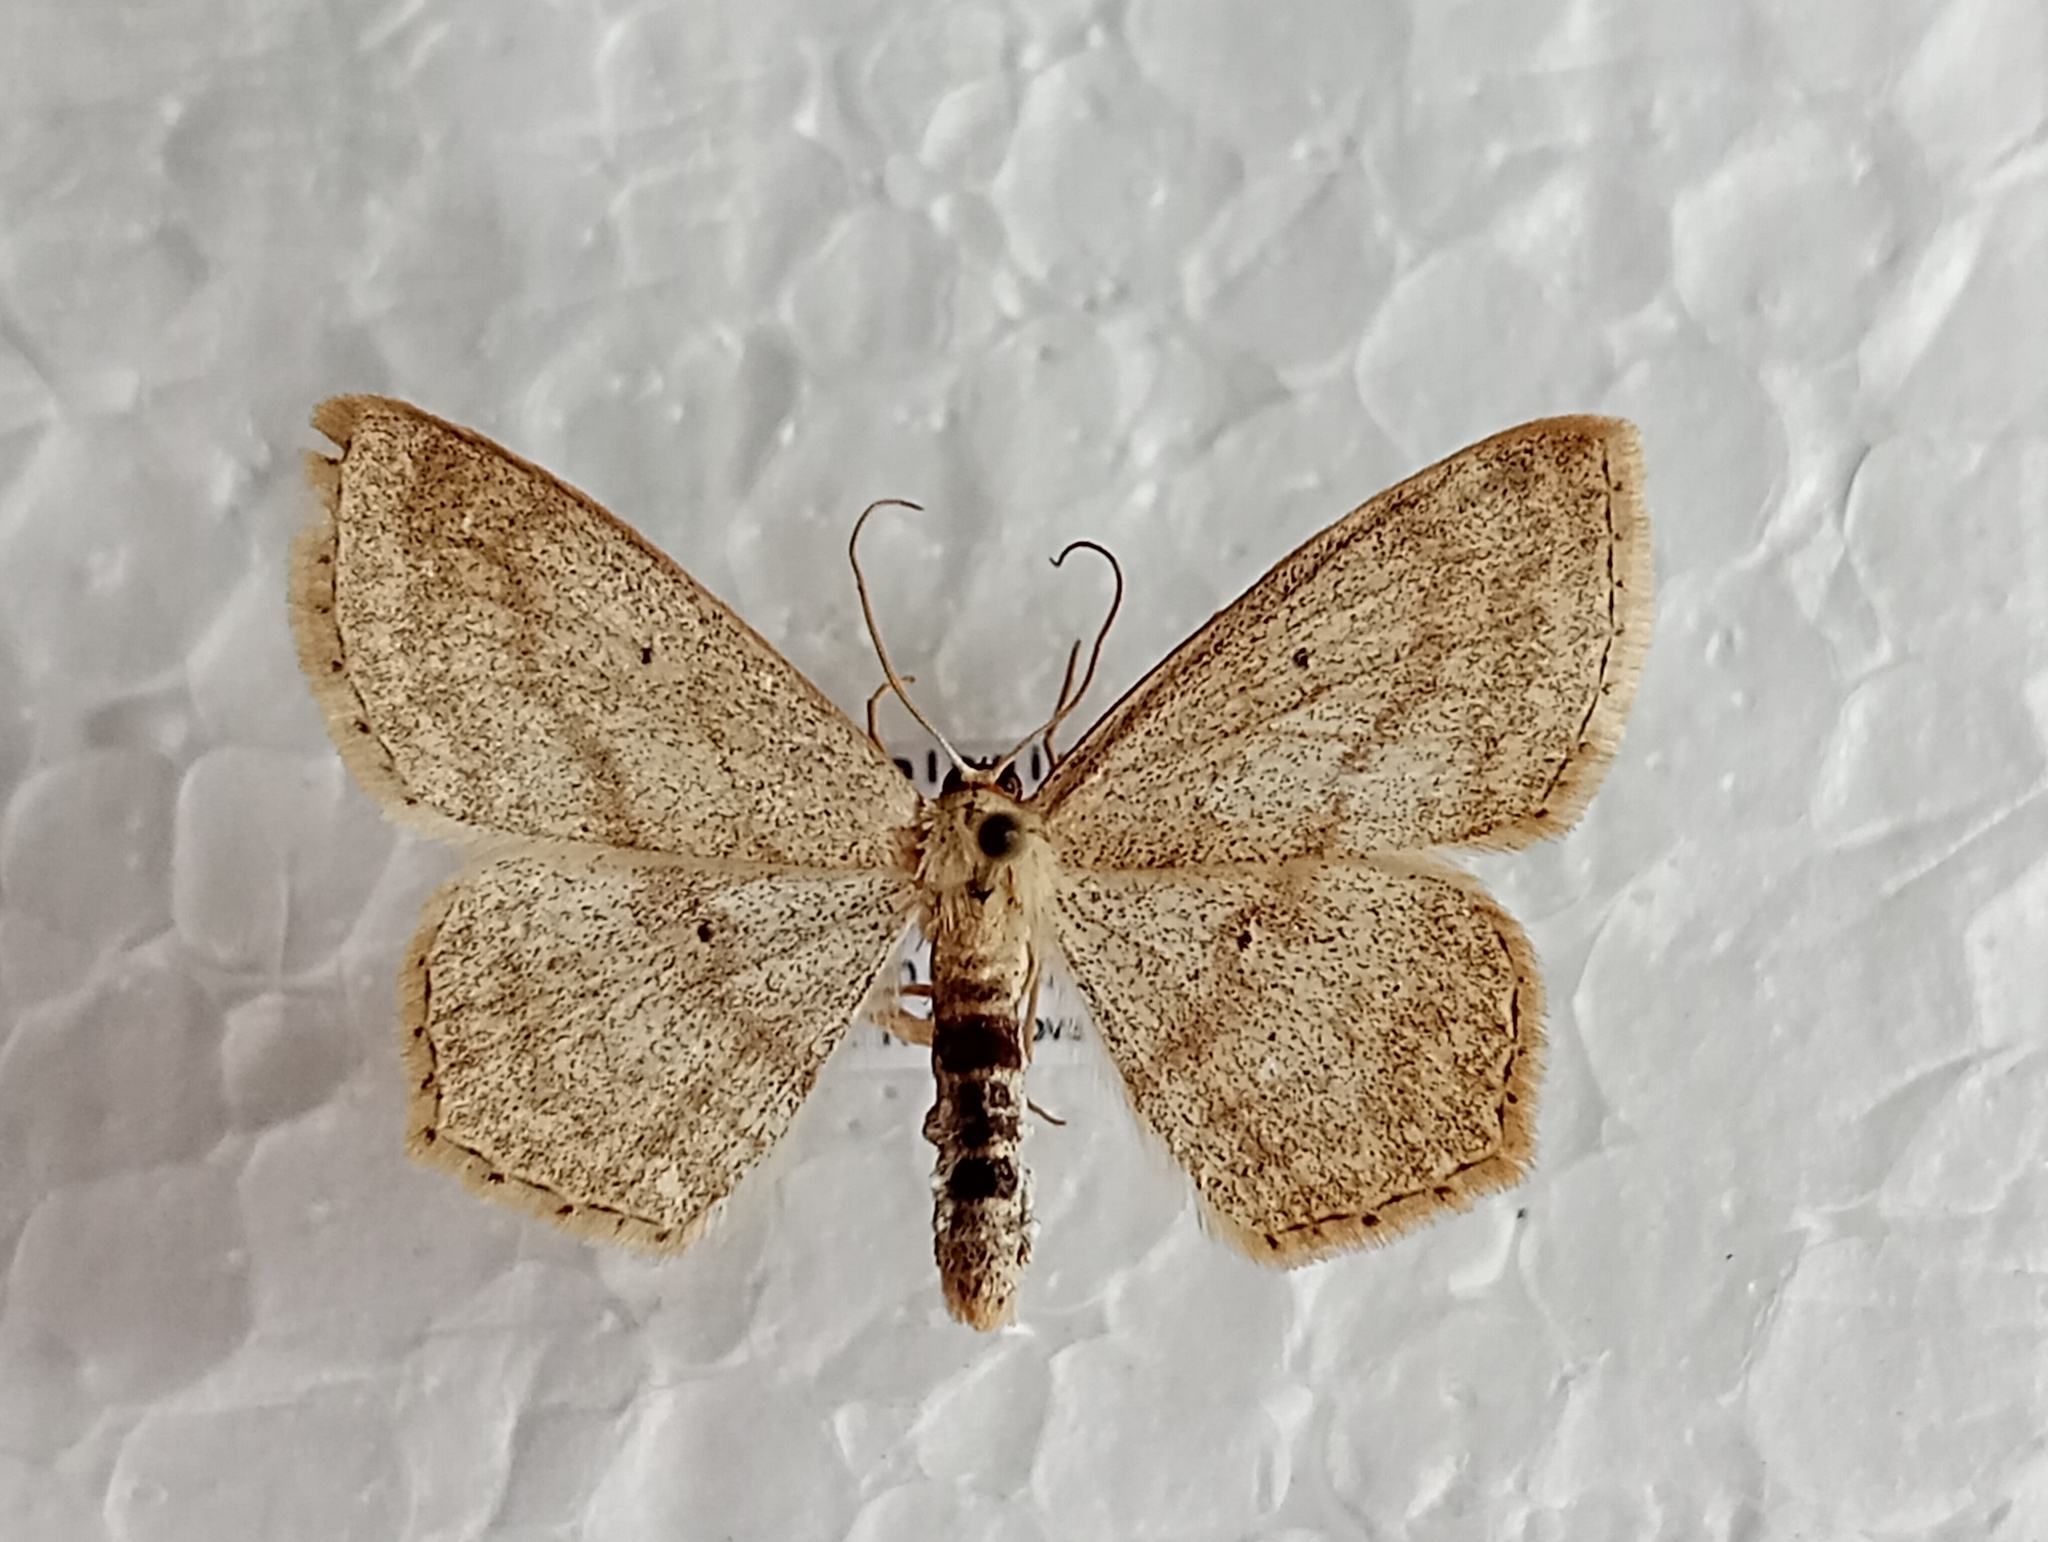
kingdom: Animalia
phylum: Arthropoda
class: Insecta
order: Lepidoptera
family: Geometridae
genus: Scopula
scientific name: Scopula nigropunctata
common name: Sub-angled wave
